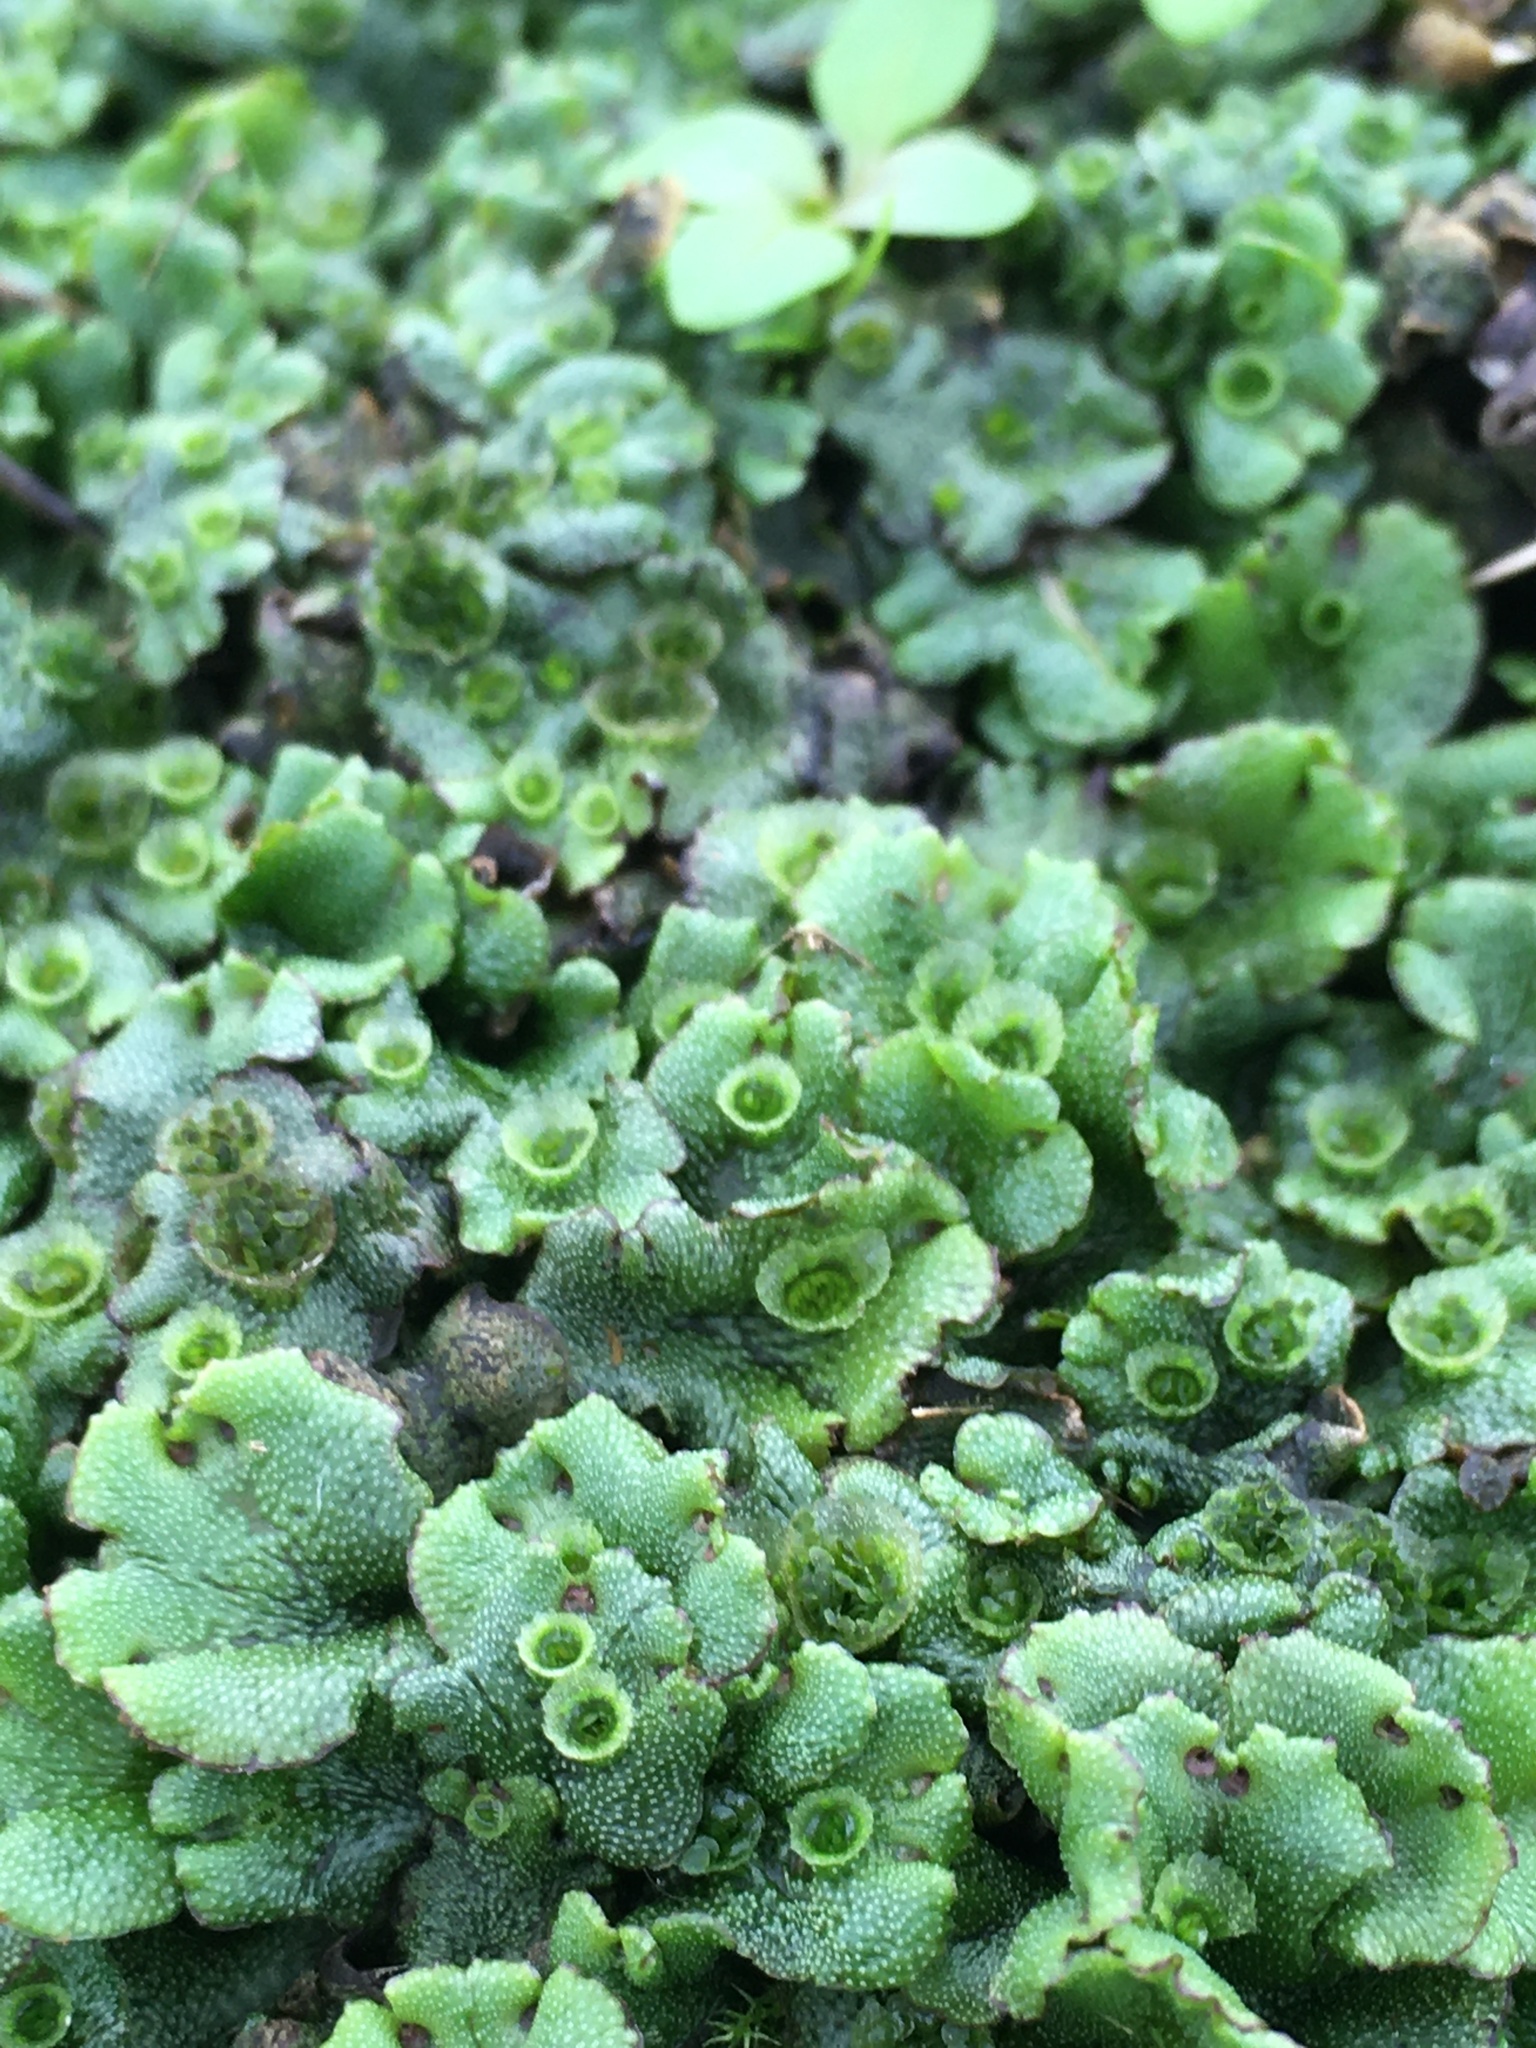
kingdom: Plantae
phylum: Marchantiophyta
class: Marchantiopsida
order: Marchantiales
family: Marchantiaceae
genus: Marchantia
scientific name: Marchantia polymorpha
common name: Common liverwort
